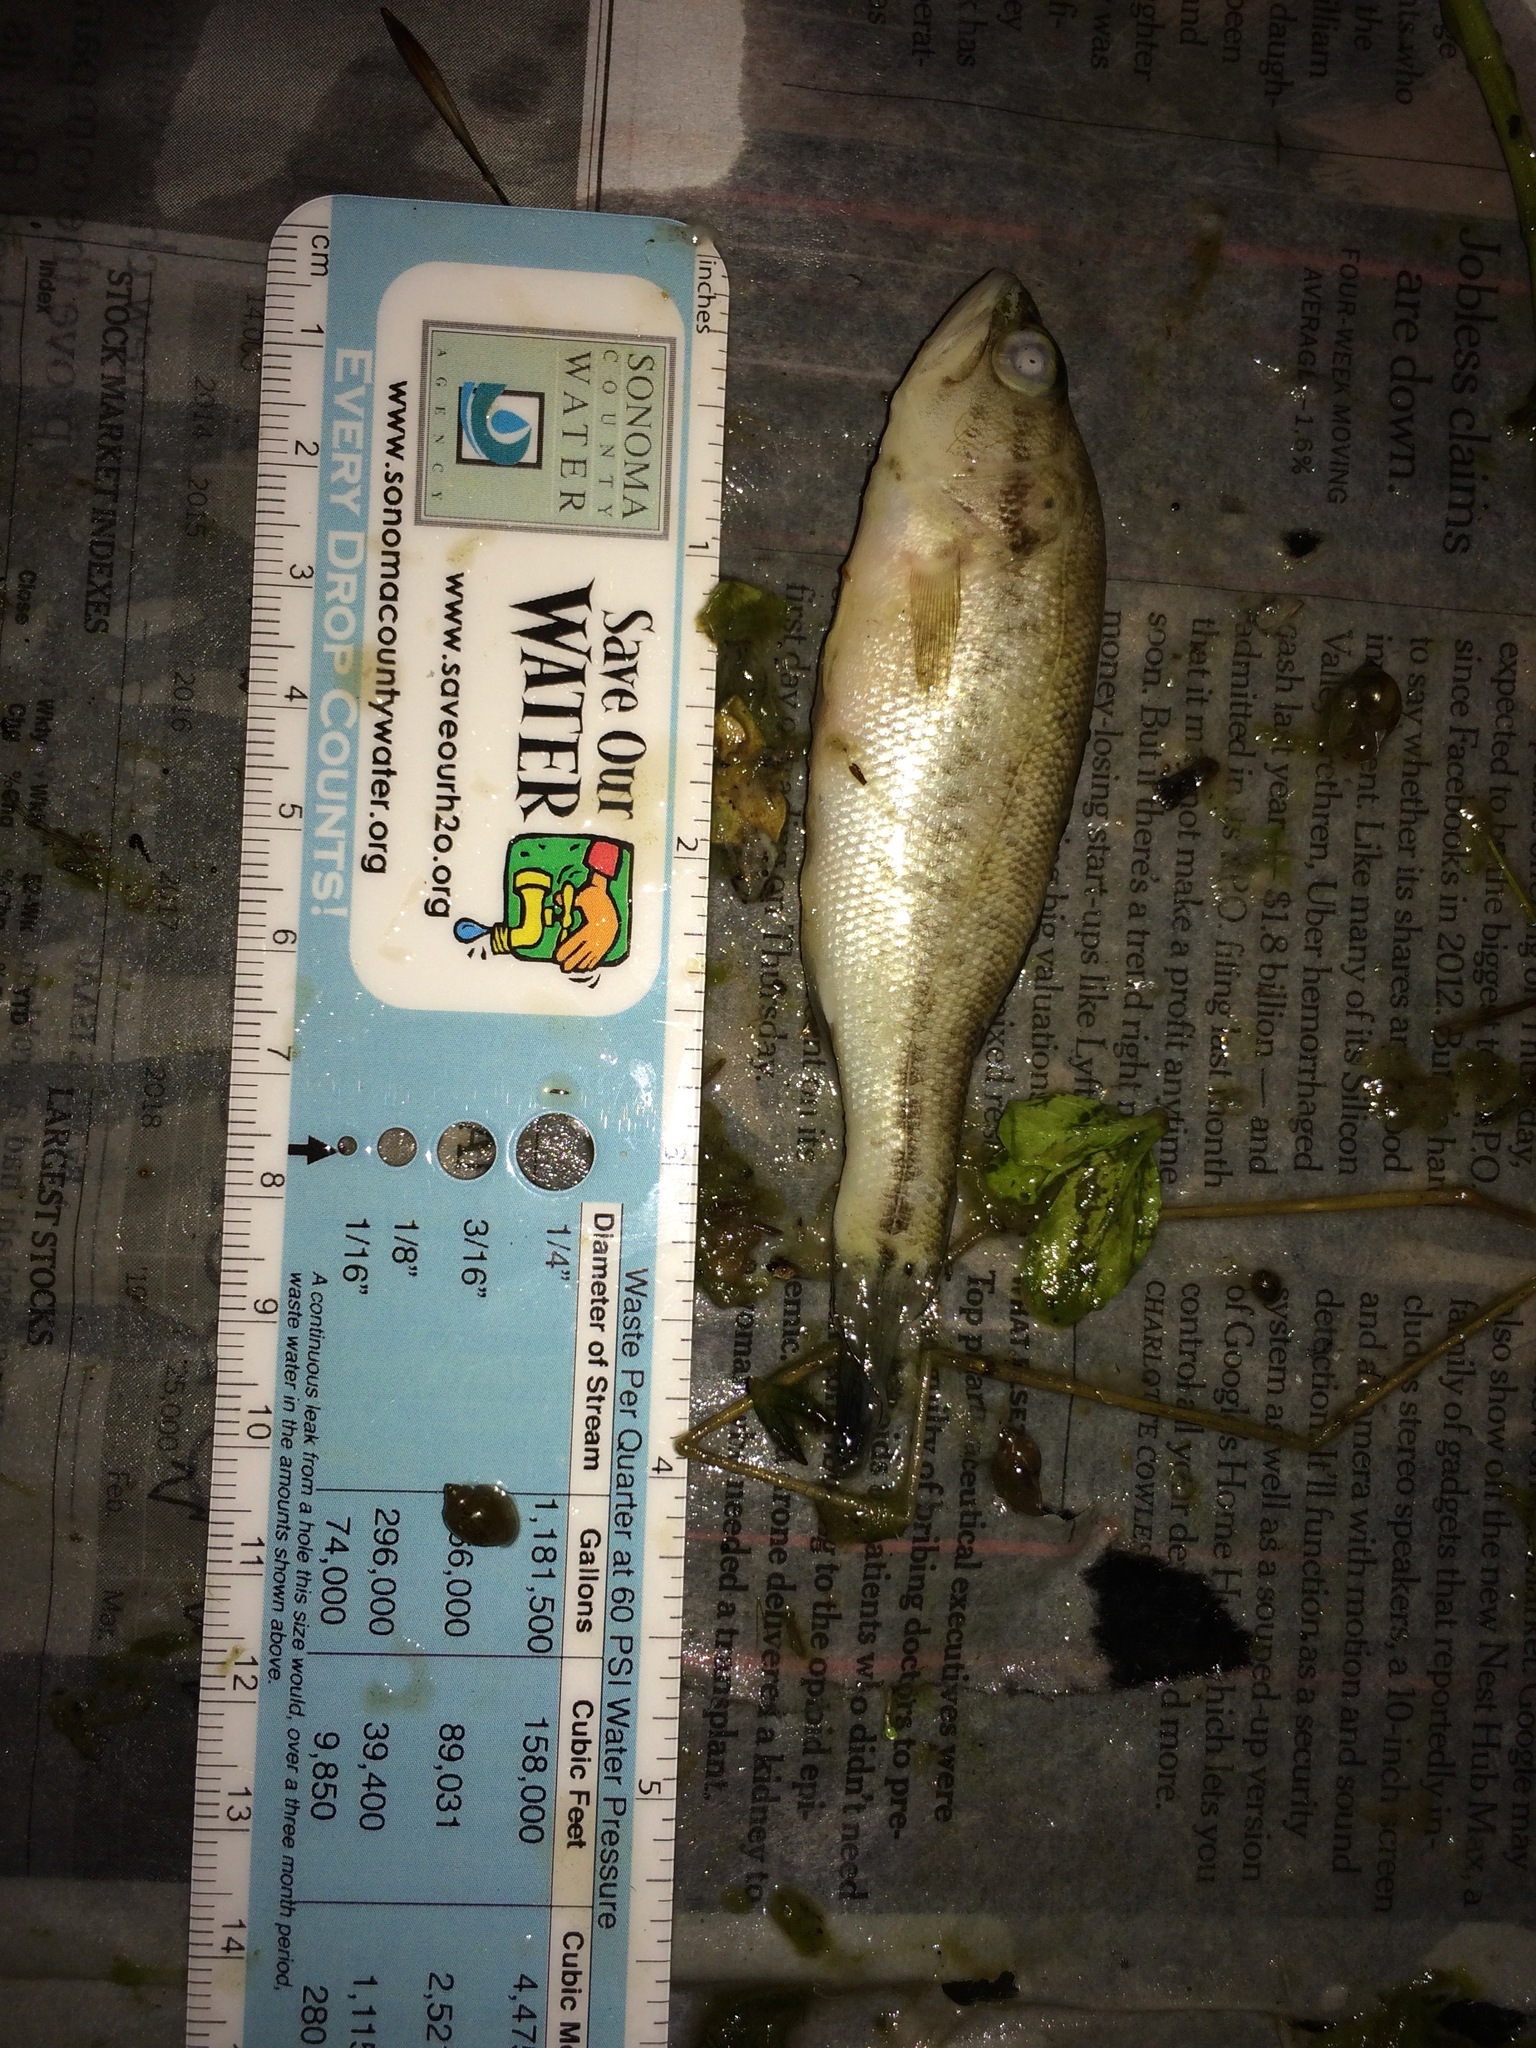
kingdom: Animalia
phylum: Chordata
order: Perciformes
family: Centrarchidae
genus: Micropterus
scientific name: Micropterus
